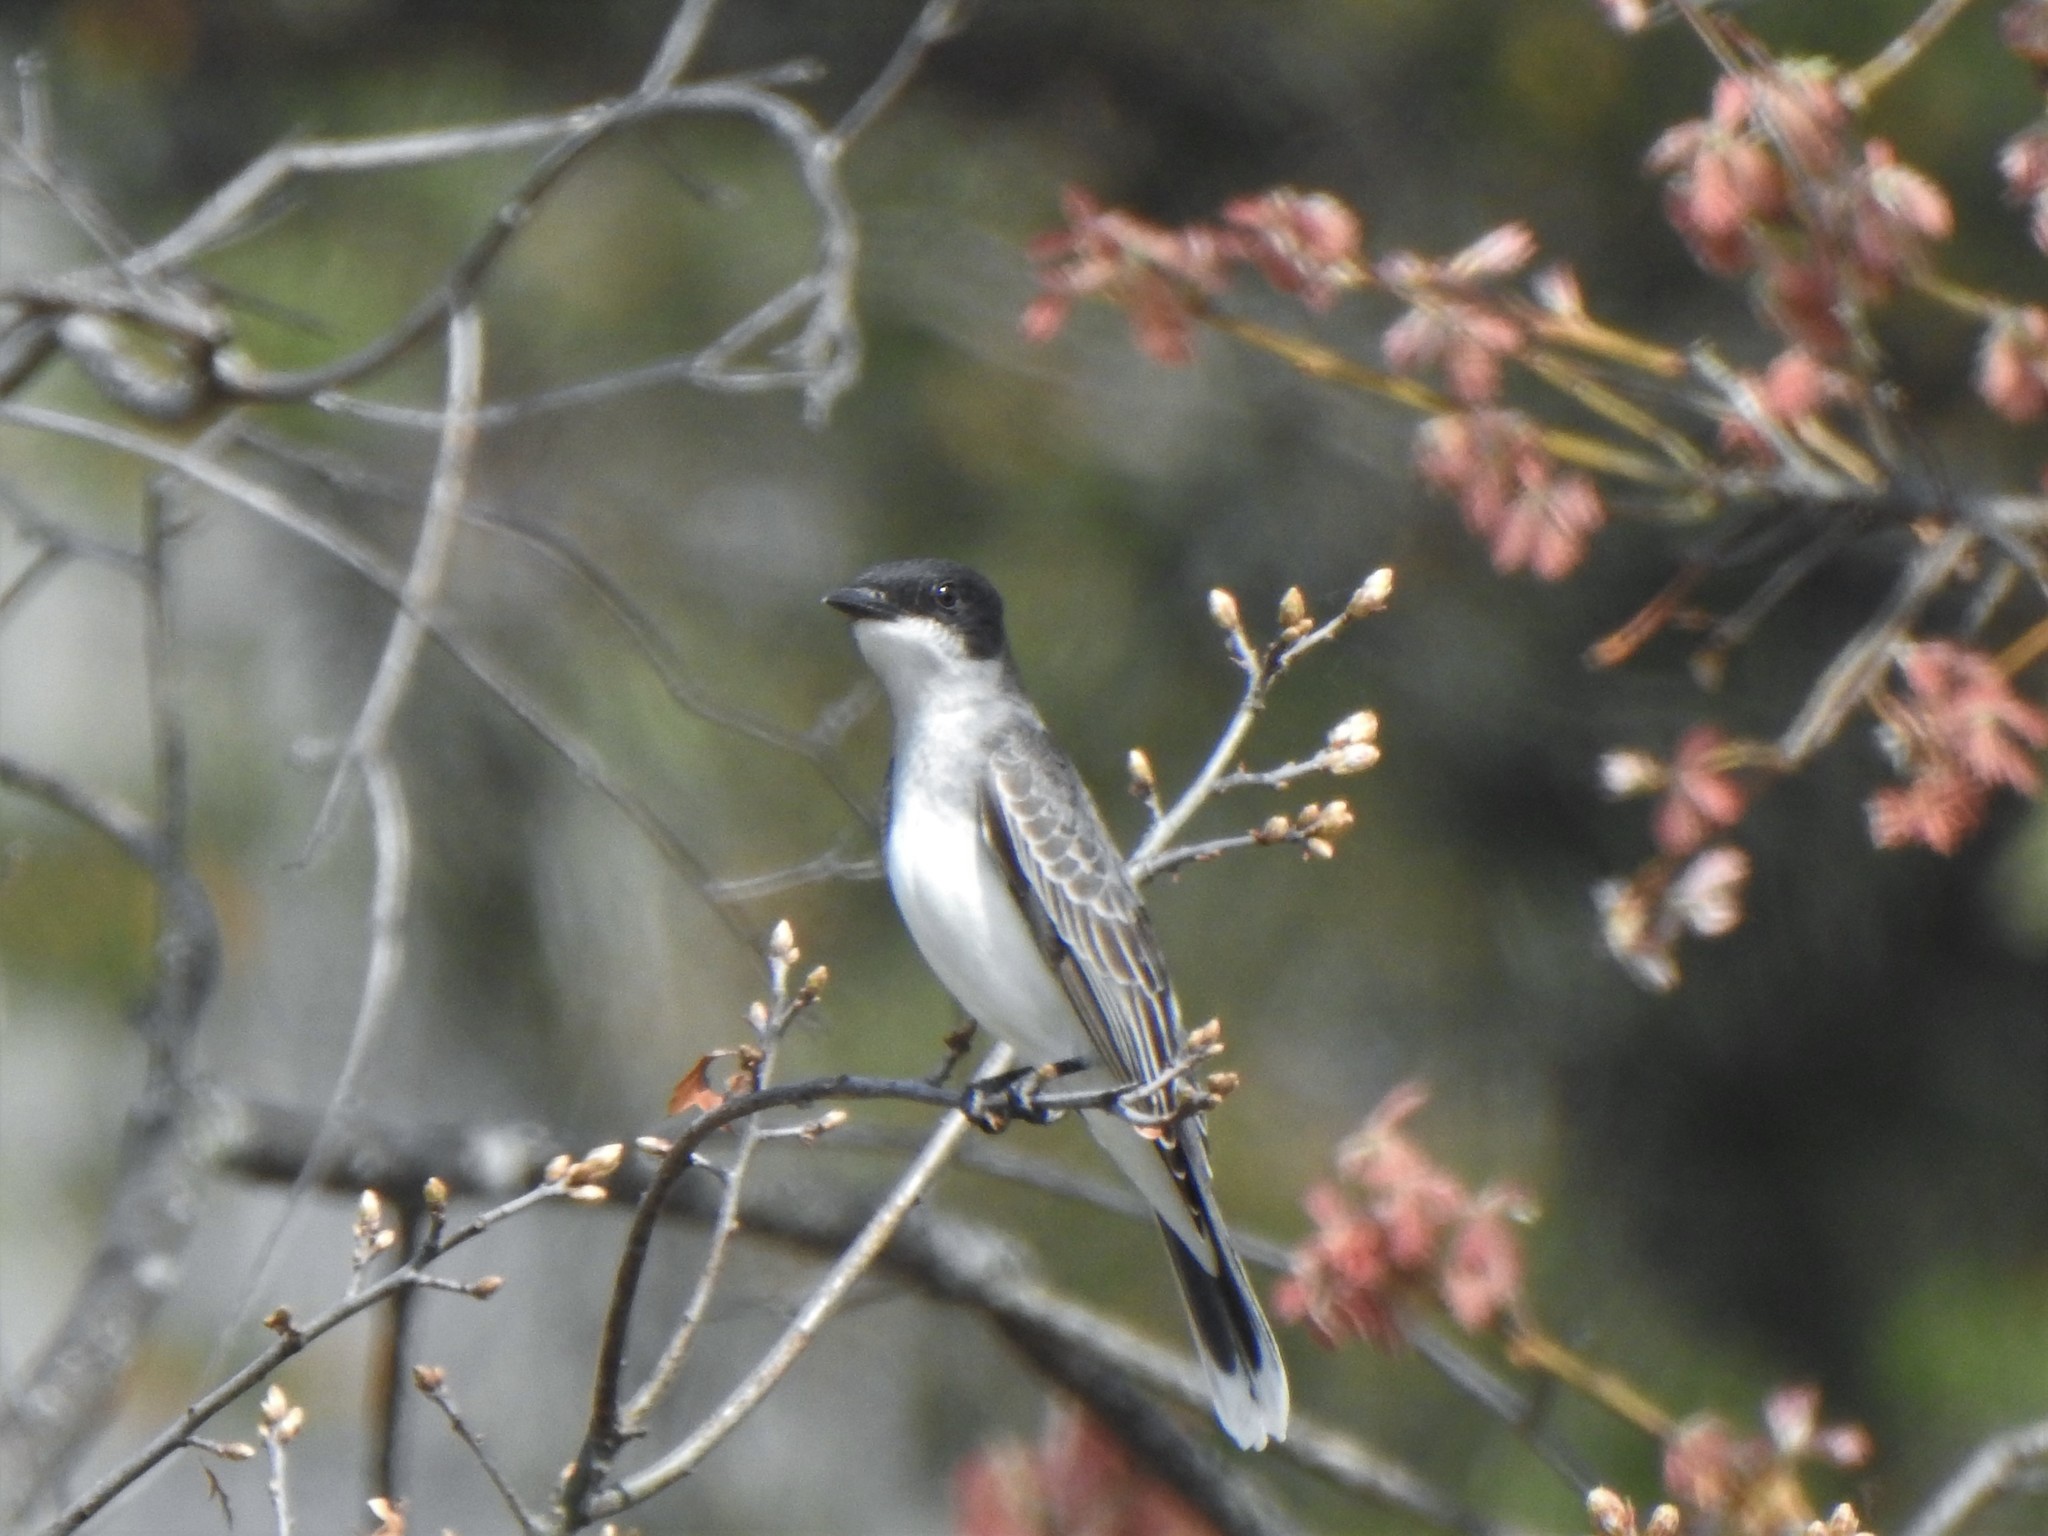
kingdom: Animalia
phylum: Chordata
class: Aves
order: Passeriformes
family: Tyrannidae
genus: Tyrannus
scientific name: Tyrannus tyrannus
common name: Eastern kingbird
